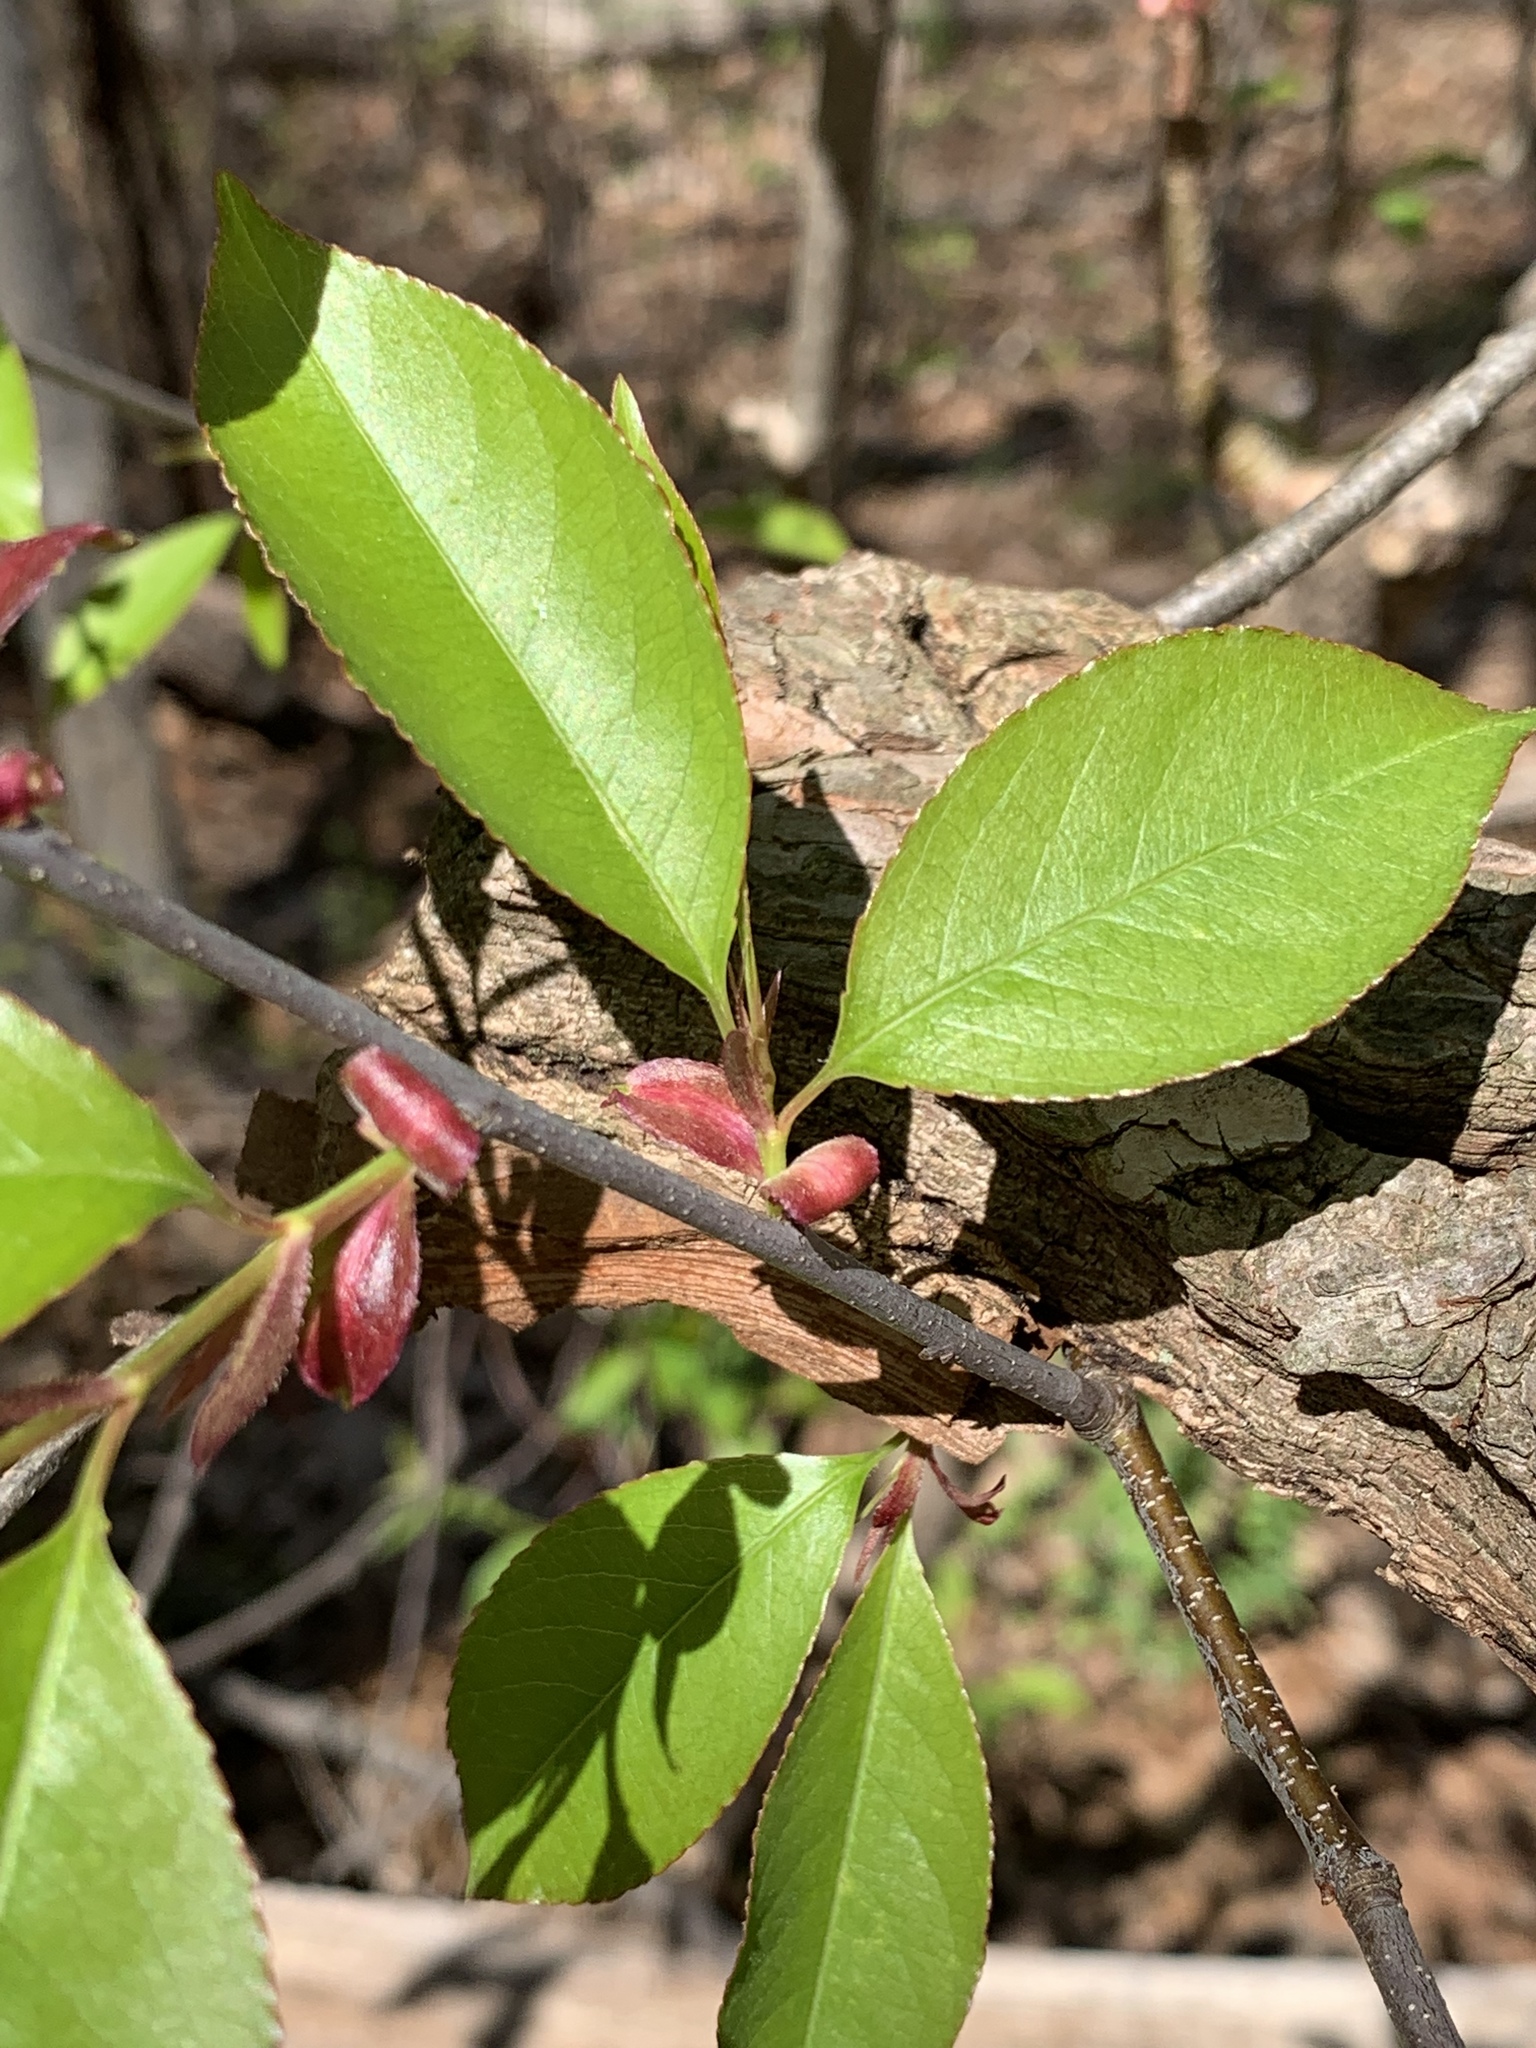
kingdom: Plantae
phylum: Tracheophyta
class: Magnoliopsida
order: Rosales
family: Rosaceae
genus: Prunus
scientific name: Prunus serotina
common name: Black cherry
